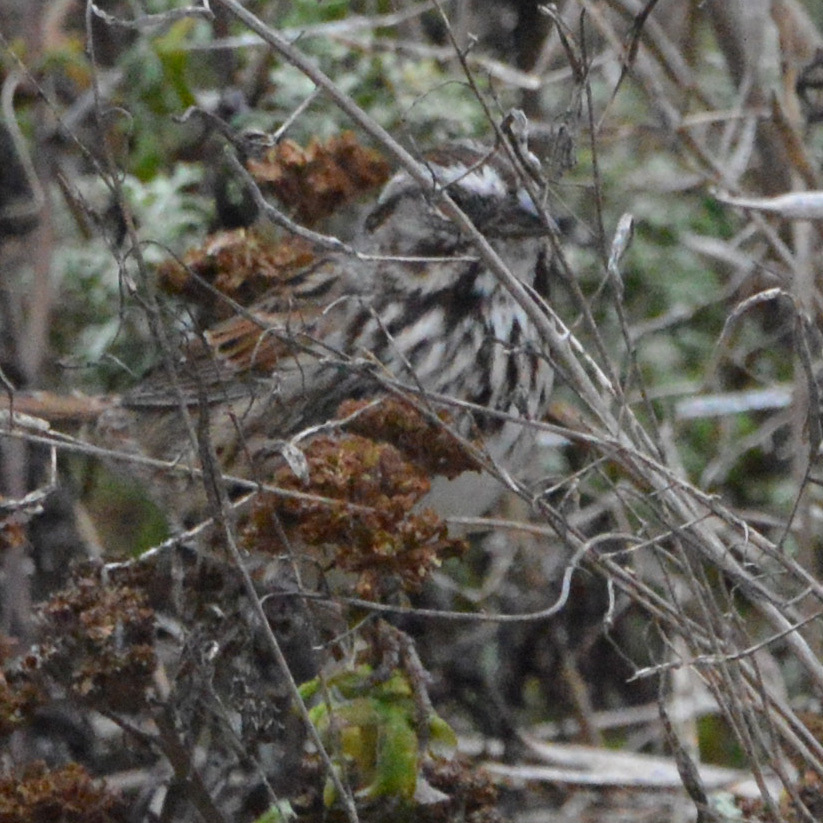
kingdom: Animalia
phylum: Chordata
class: Aves
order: Passeriformes
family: Passerellidae
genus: Melospiza
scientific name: Melospiza melodia
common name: Song sparrow
